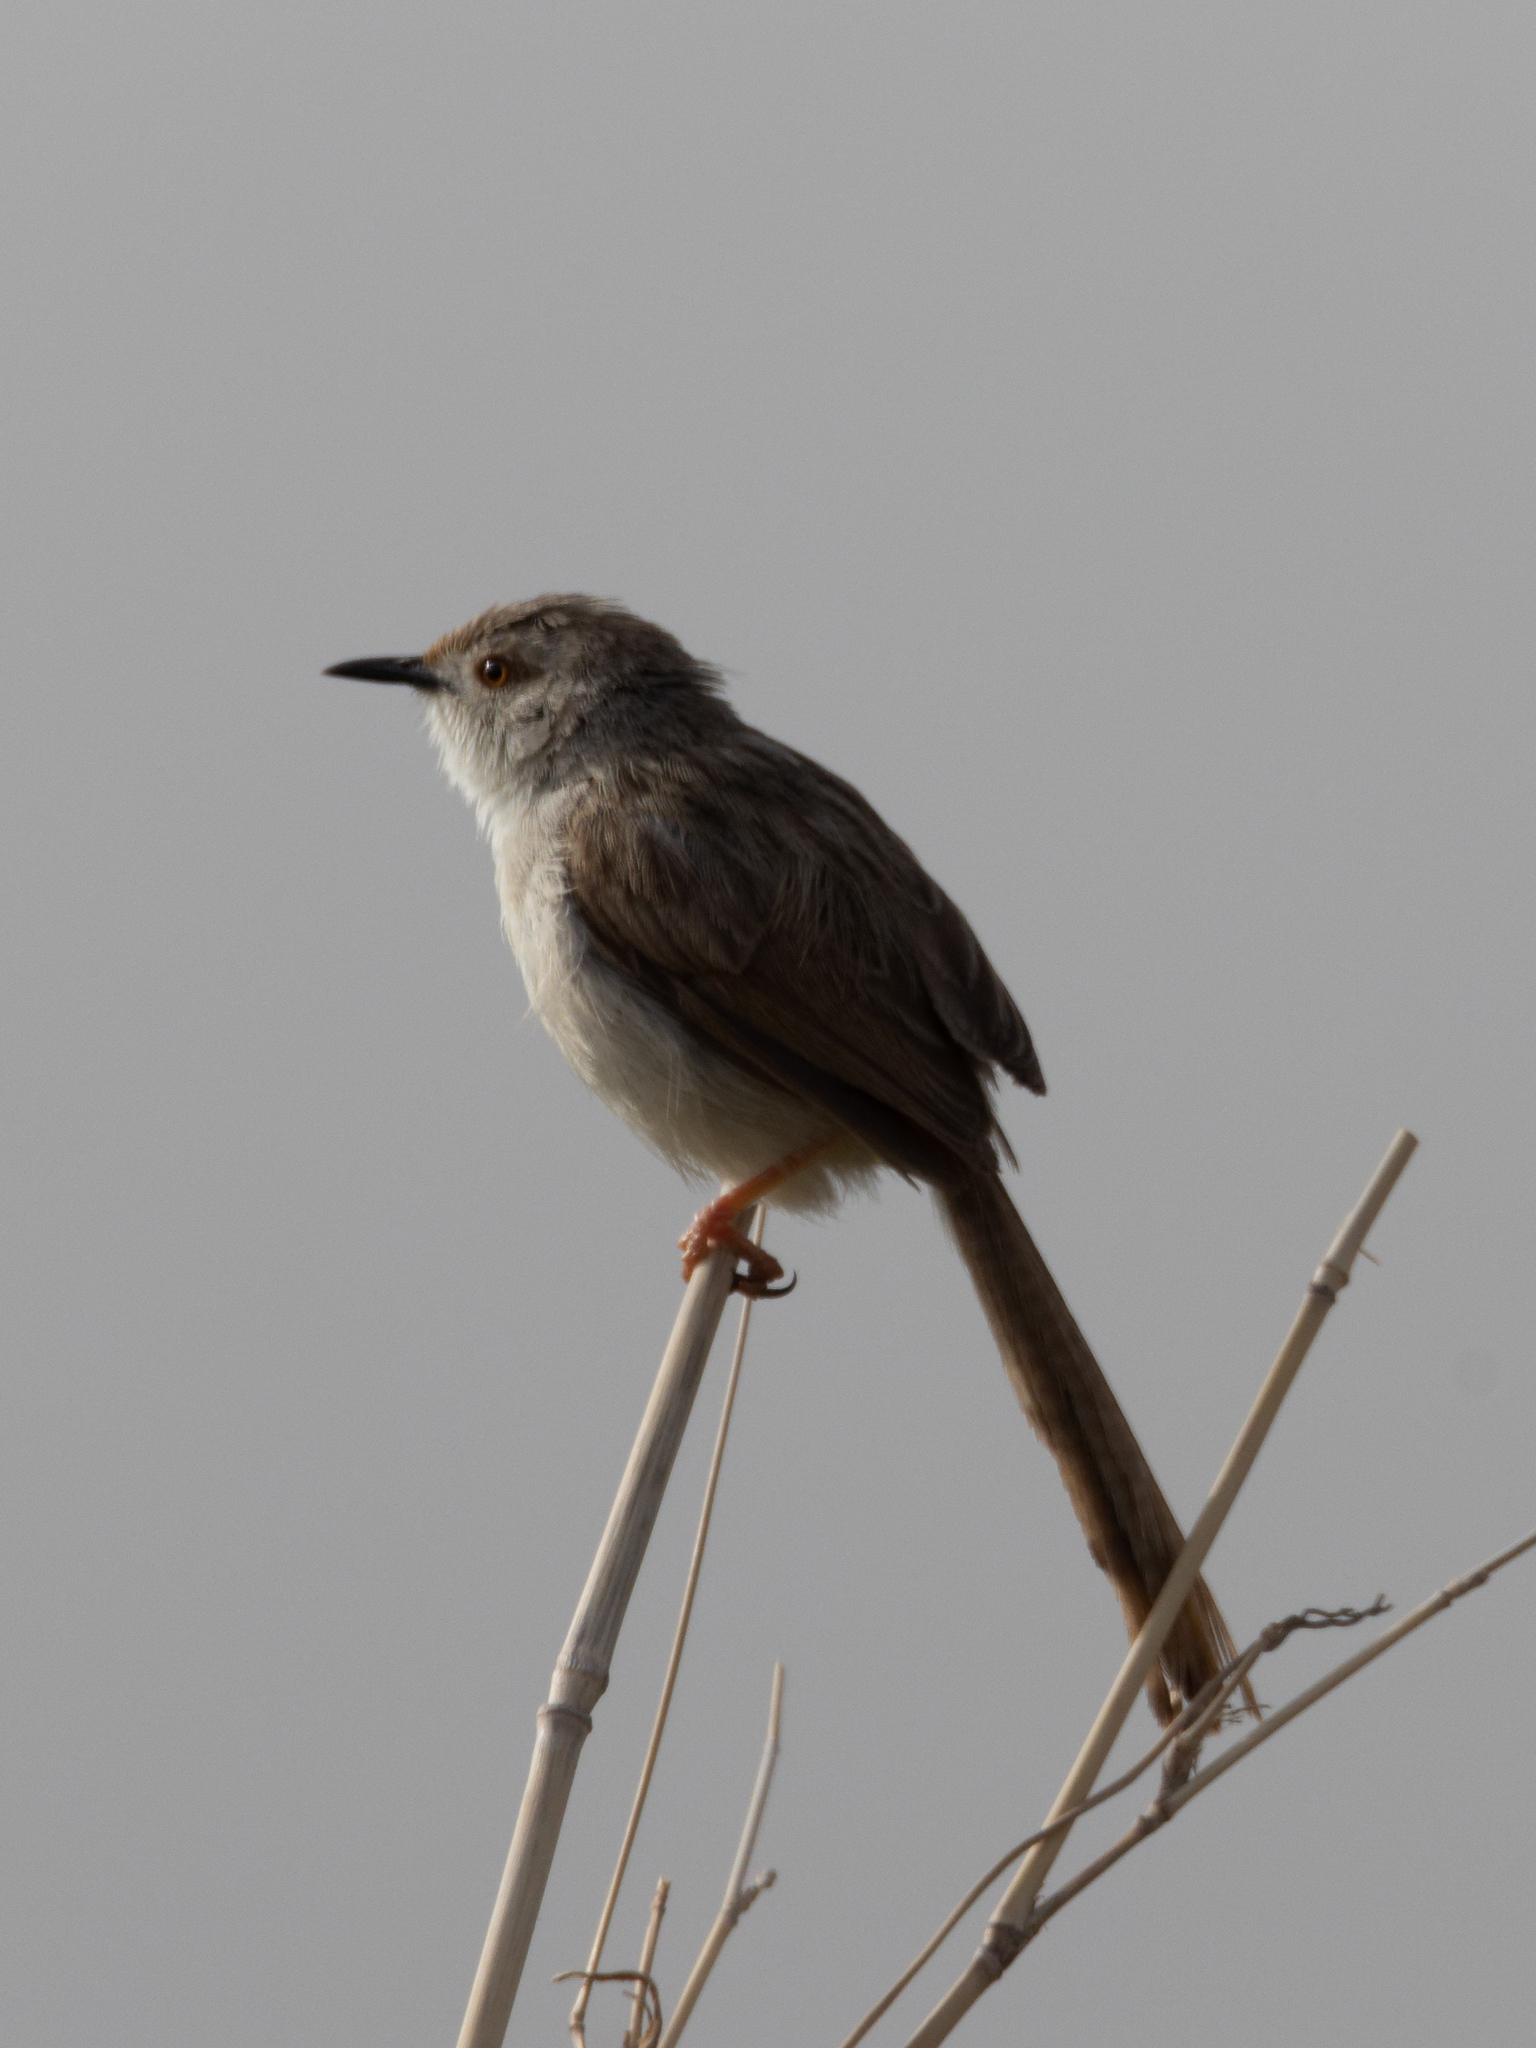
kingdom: Animalia
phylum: Chordata
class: Aves
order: Passeriformes
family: Cisticolidae
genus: Prinia
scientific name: Prinia gracilis
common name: Graceful prinia
